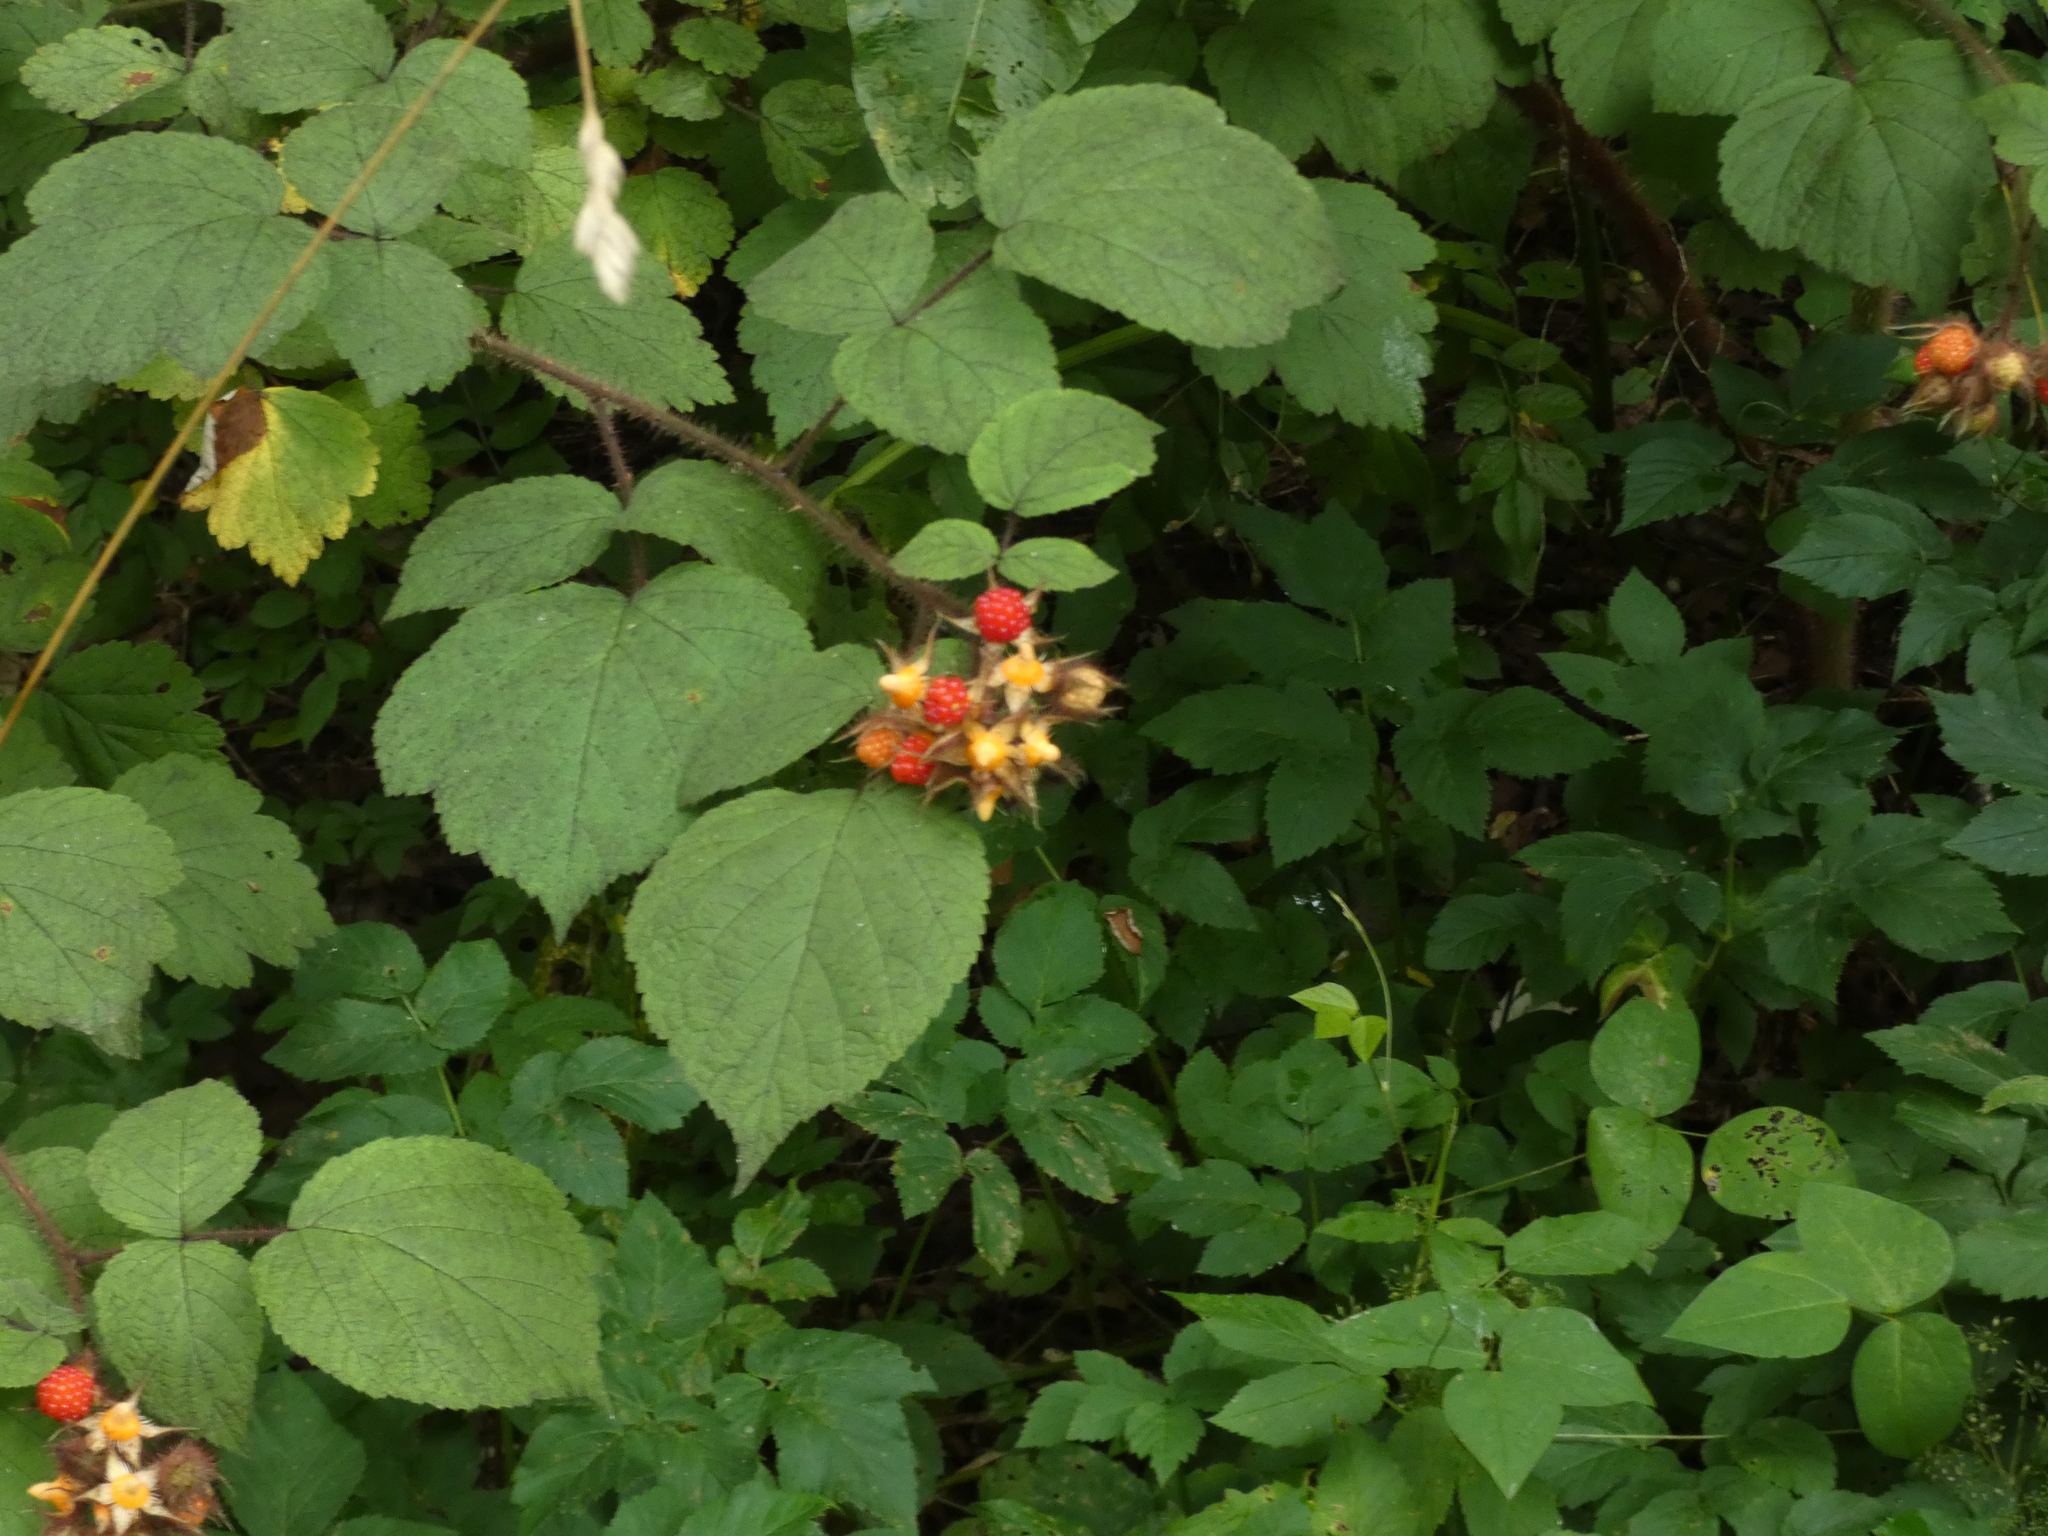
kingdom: Plantae
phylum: Tracheophyta
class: Magnoliopsida
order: Rosales
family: Rosaceae
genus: Rubus
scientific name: Rubus phoenicolasius
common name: Japanese wineberry
